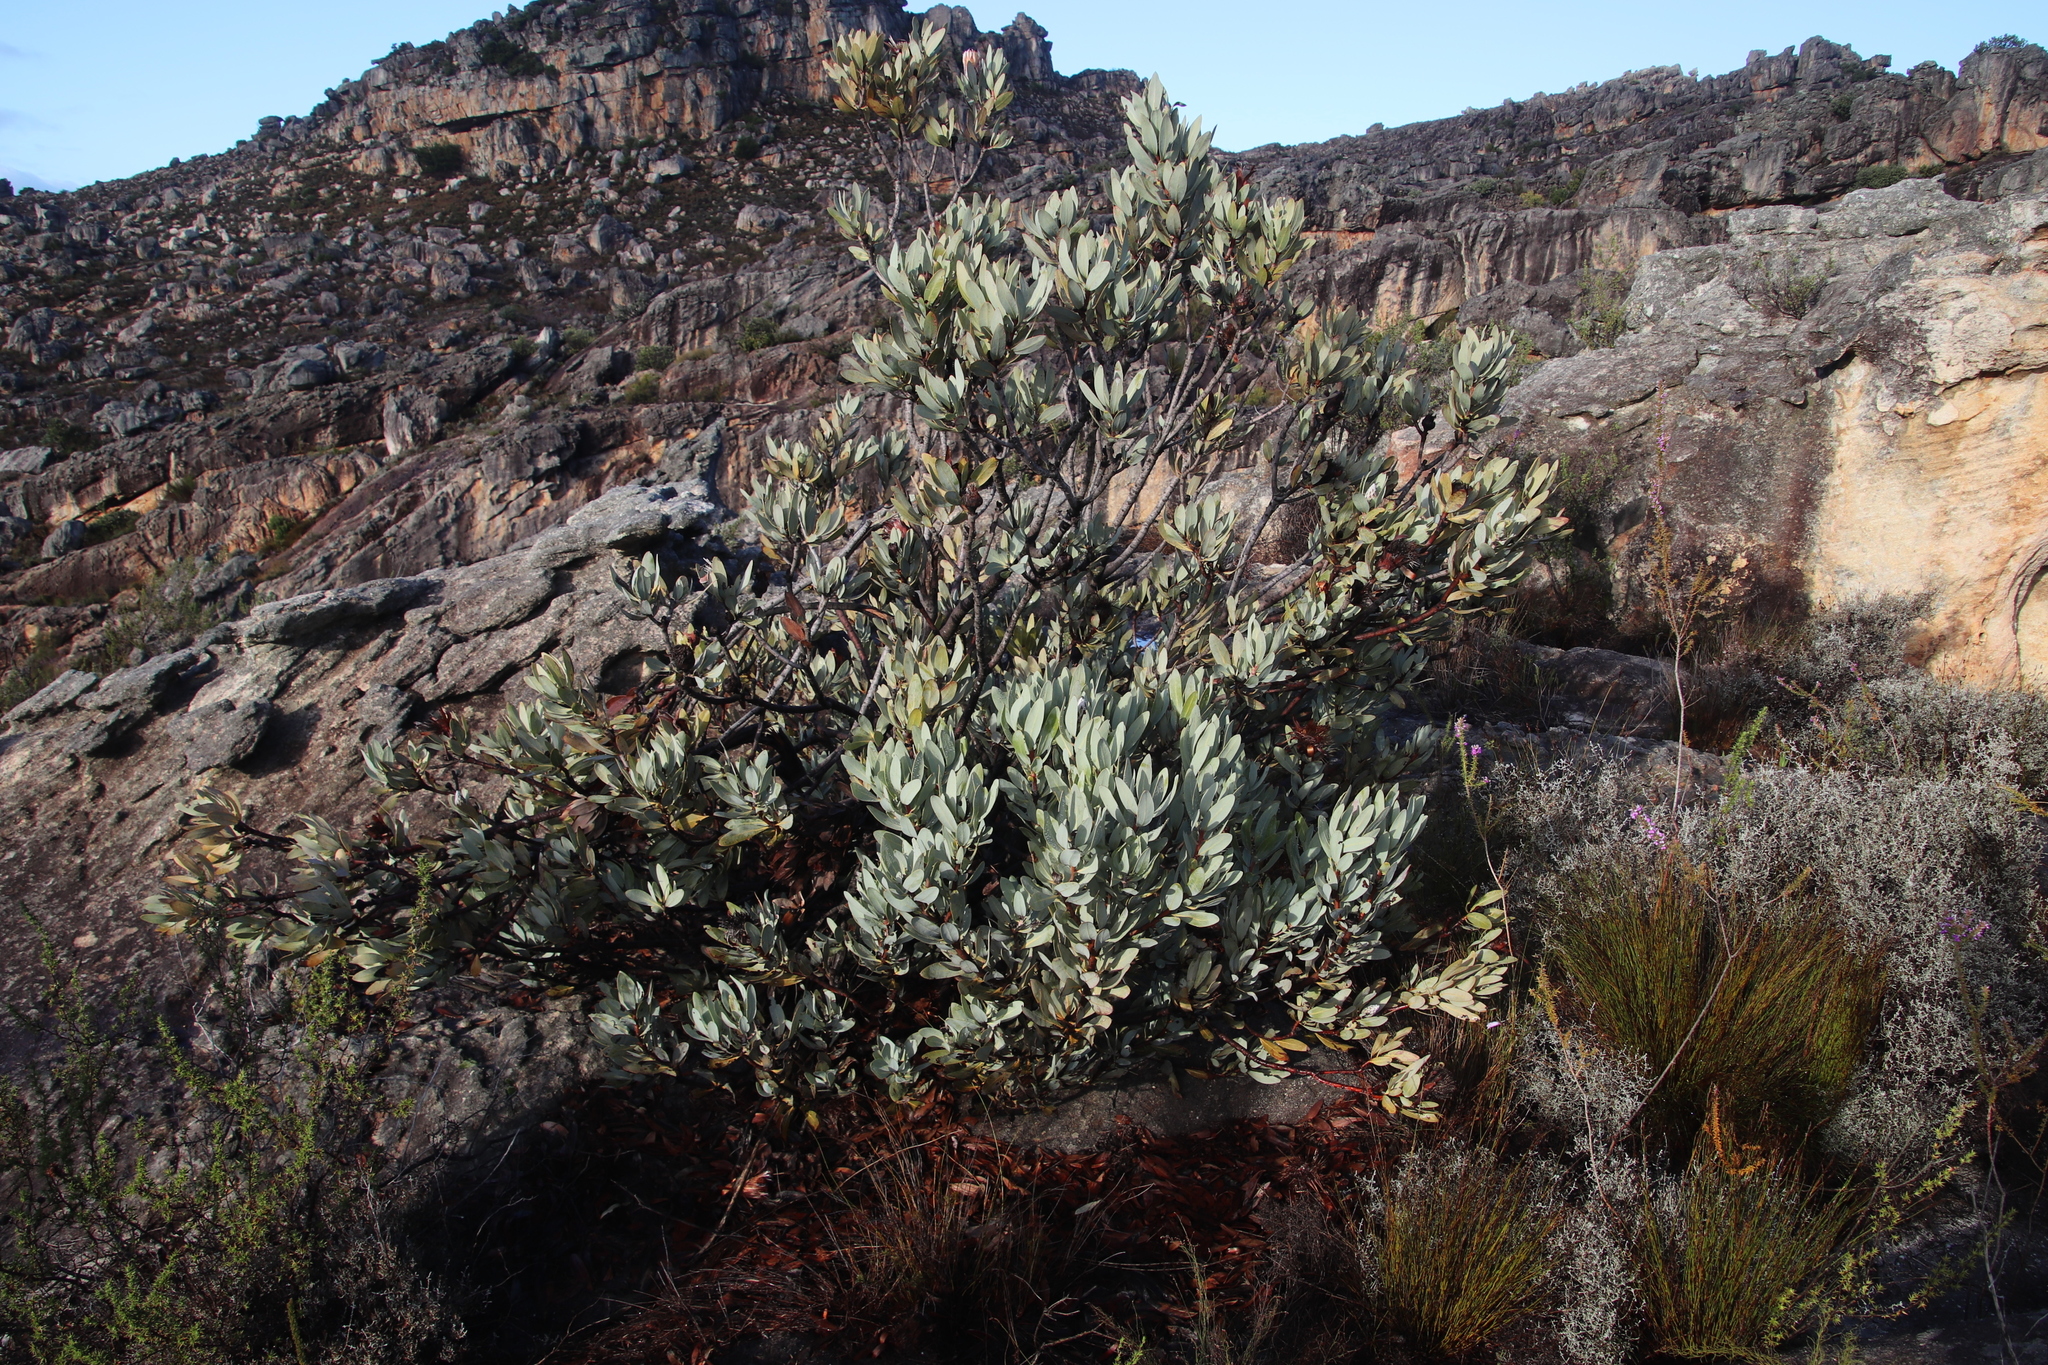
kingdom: Plantae
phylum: Tracheophyta
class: Magnoliopsida
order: Proteales
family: Proteaceae
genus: Protea
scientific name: Protea laurifolia
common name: Grey-leaf sugarbsh
